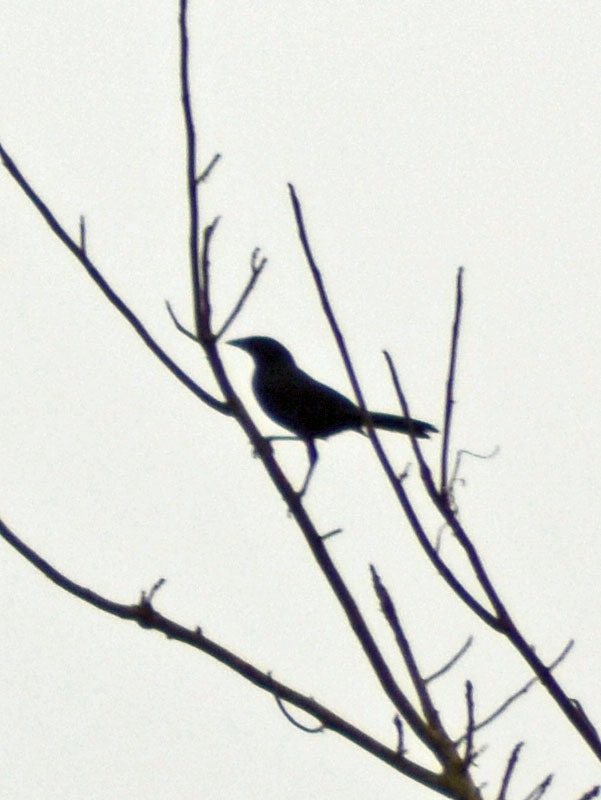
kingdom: Animalia
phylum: Chordata
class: Aves
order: Passeriformes
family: Icteridae
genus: Dives
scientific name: Dives dives
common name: Melodious blackbird
